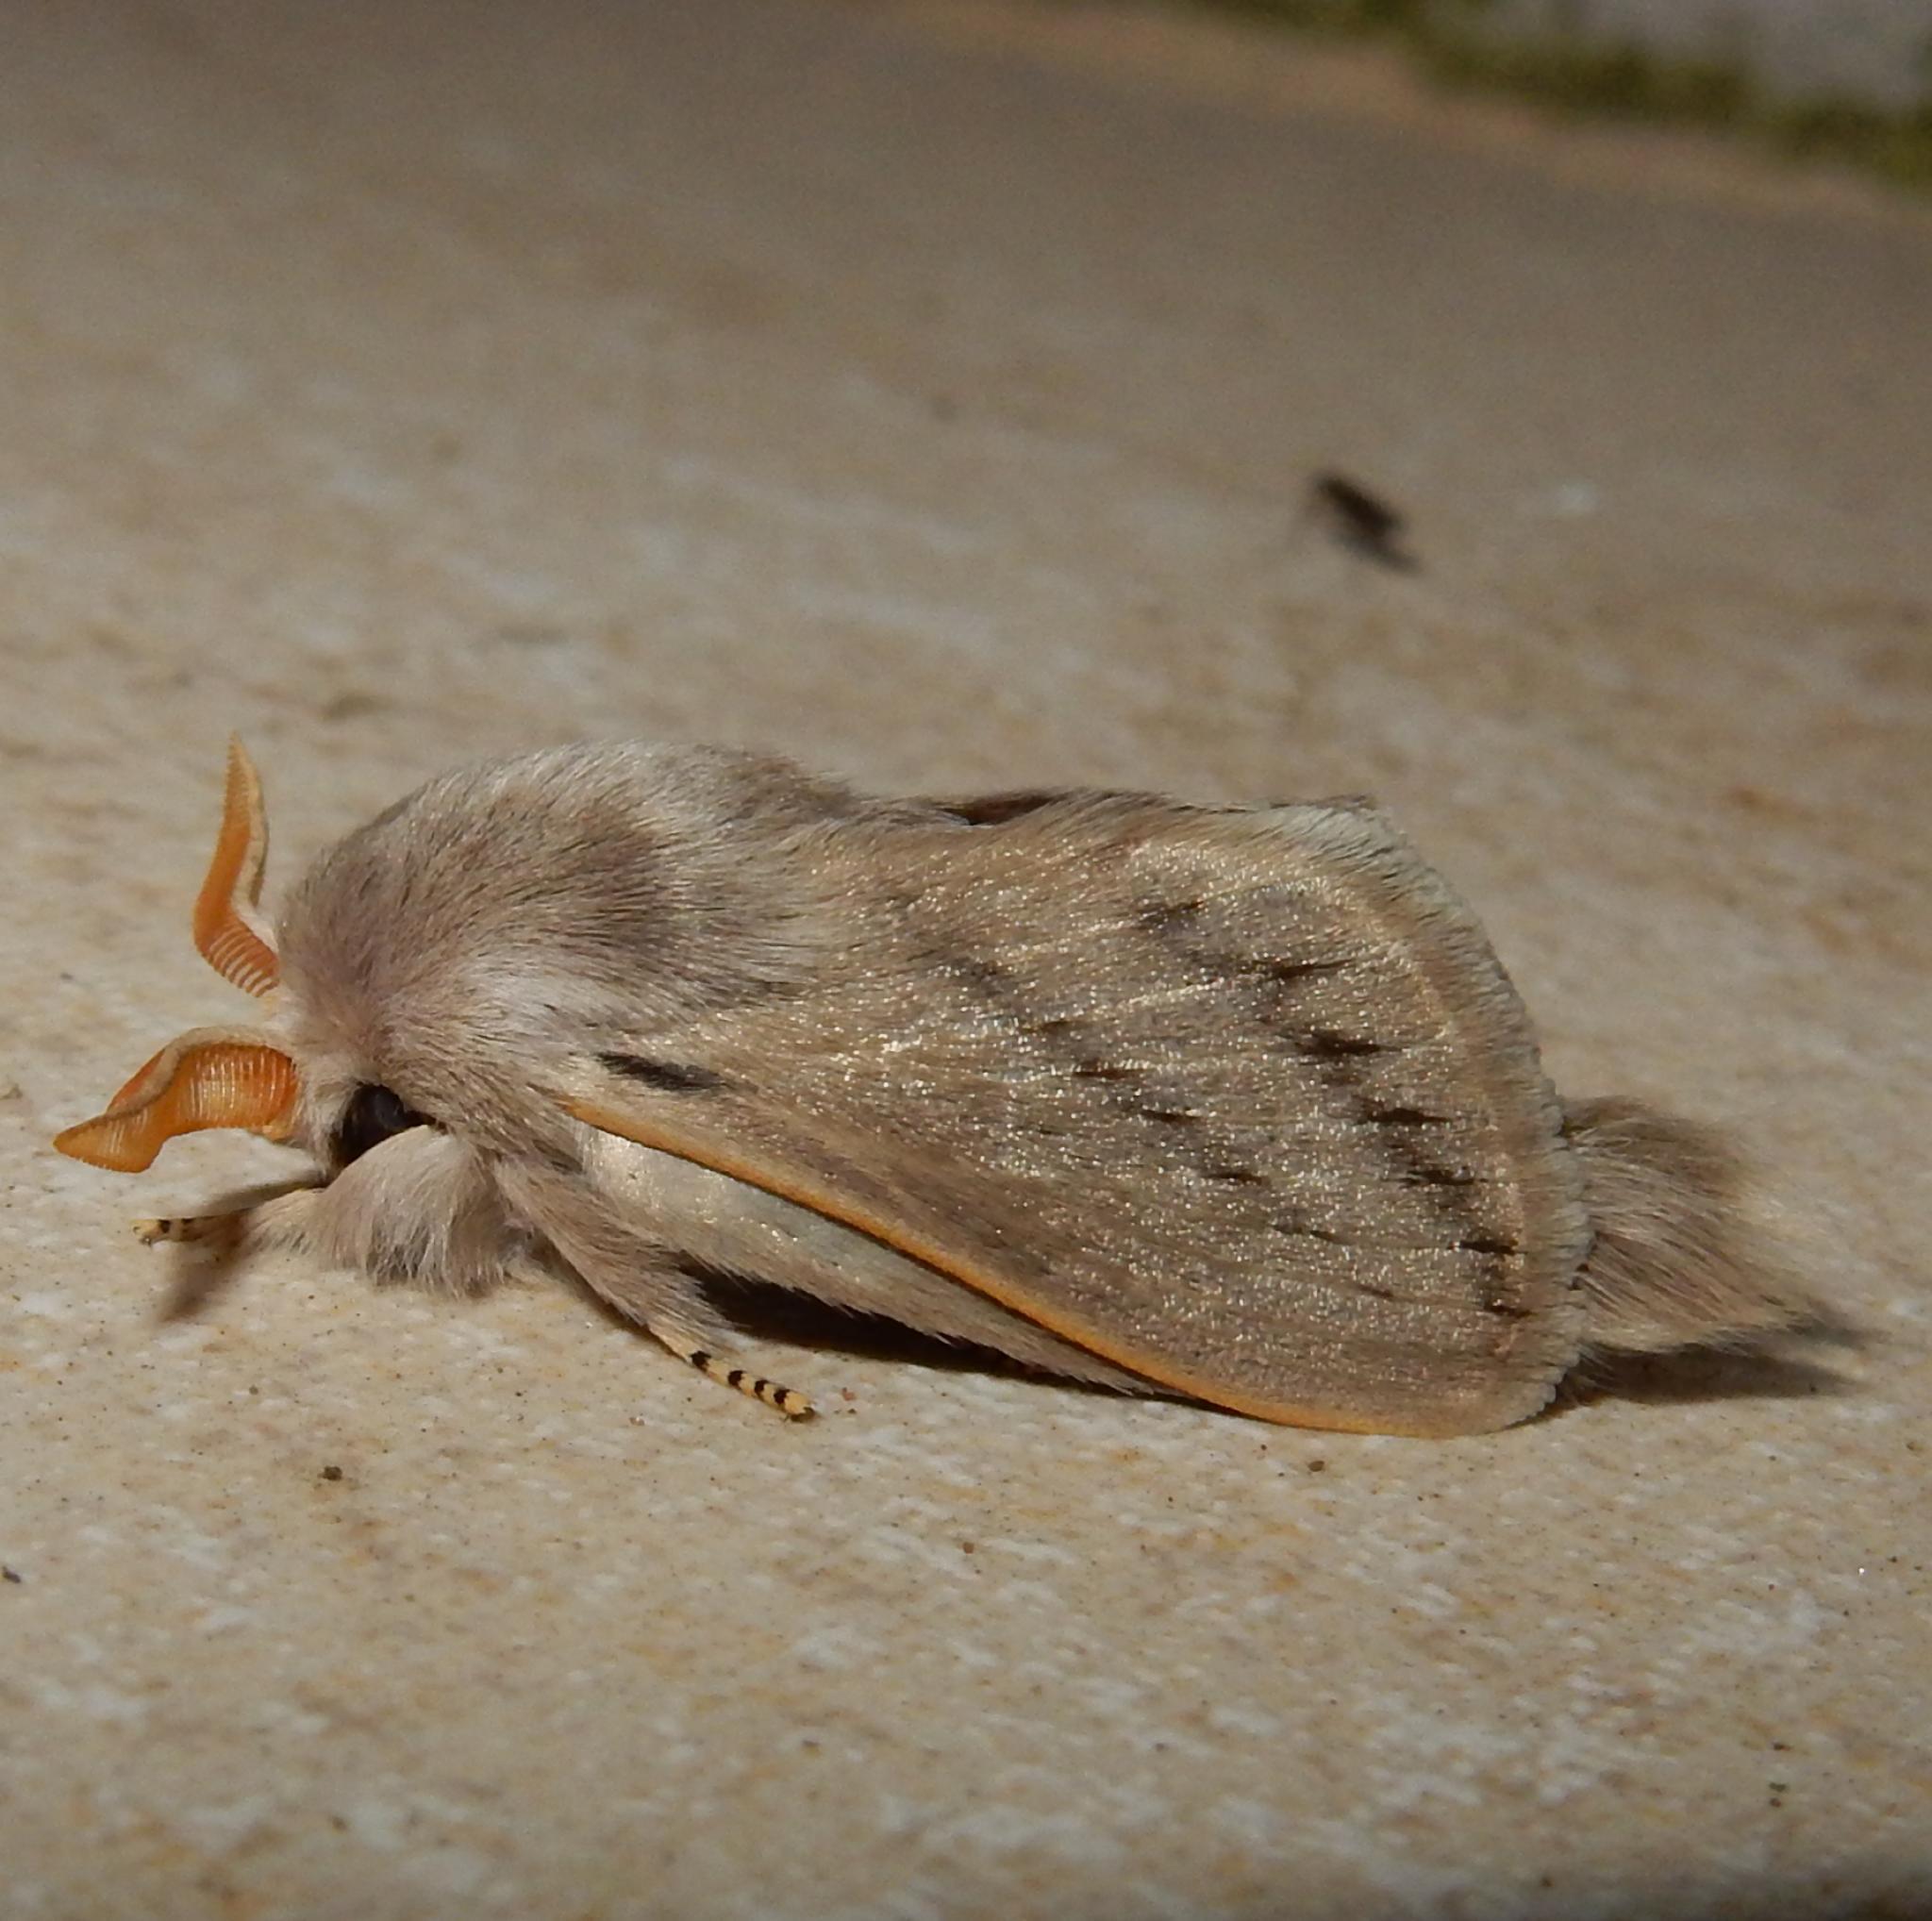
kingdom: Animalia
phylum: Arthropoda
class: Insecta
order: Lepidoptera
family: Lasiocampidae
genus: Beralade
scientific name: Beralade jordani
